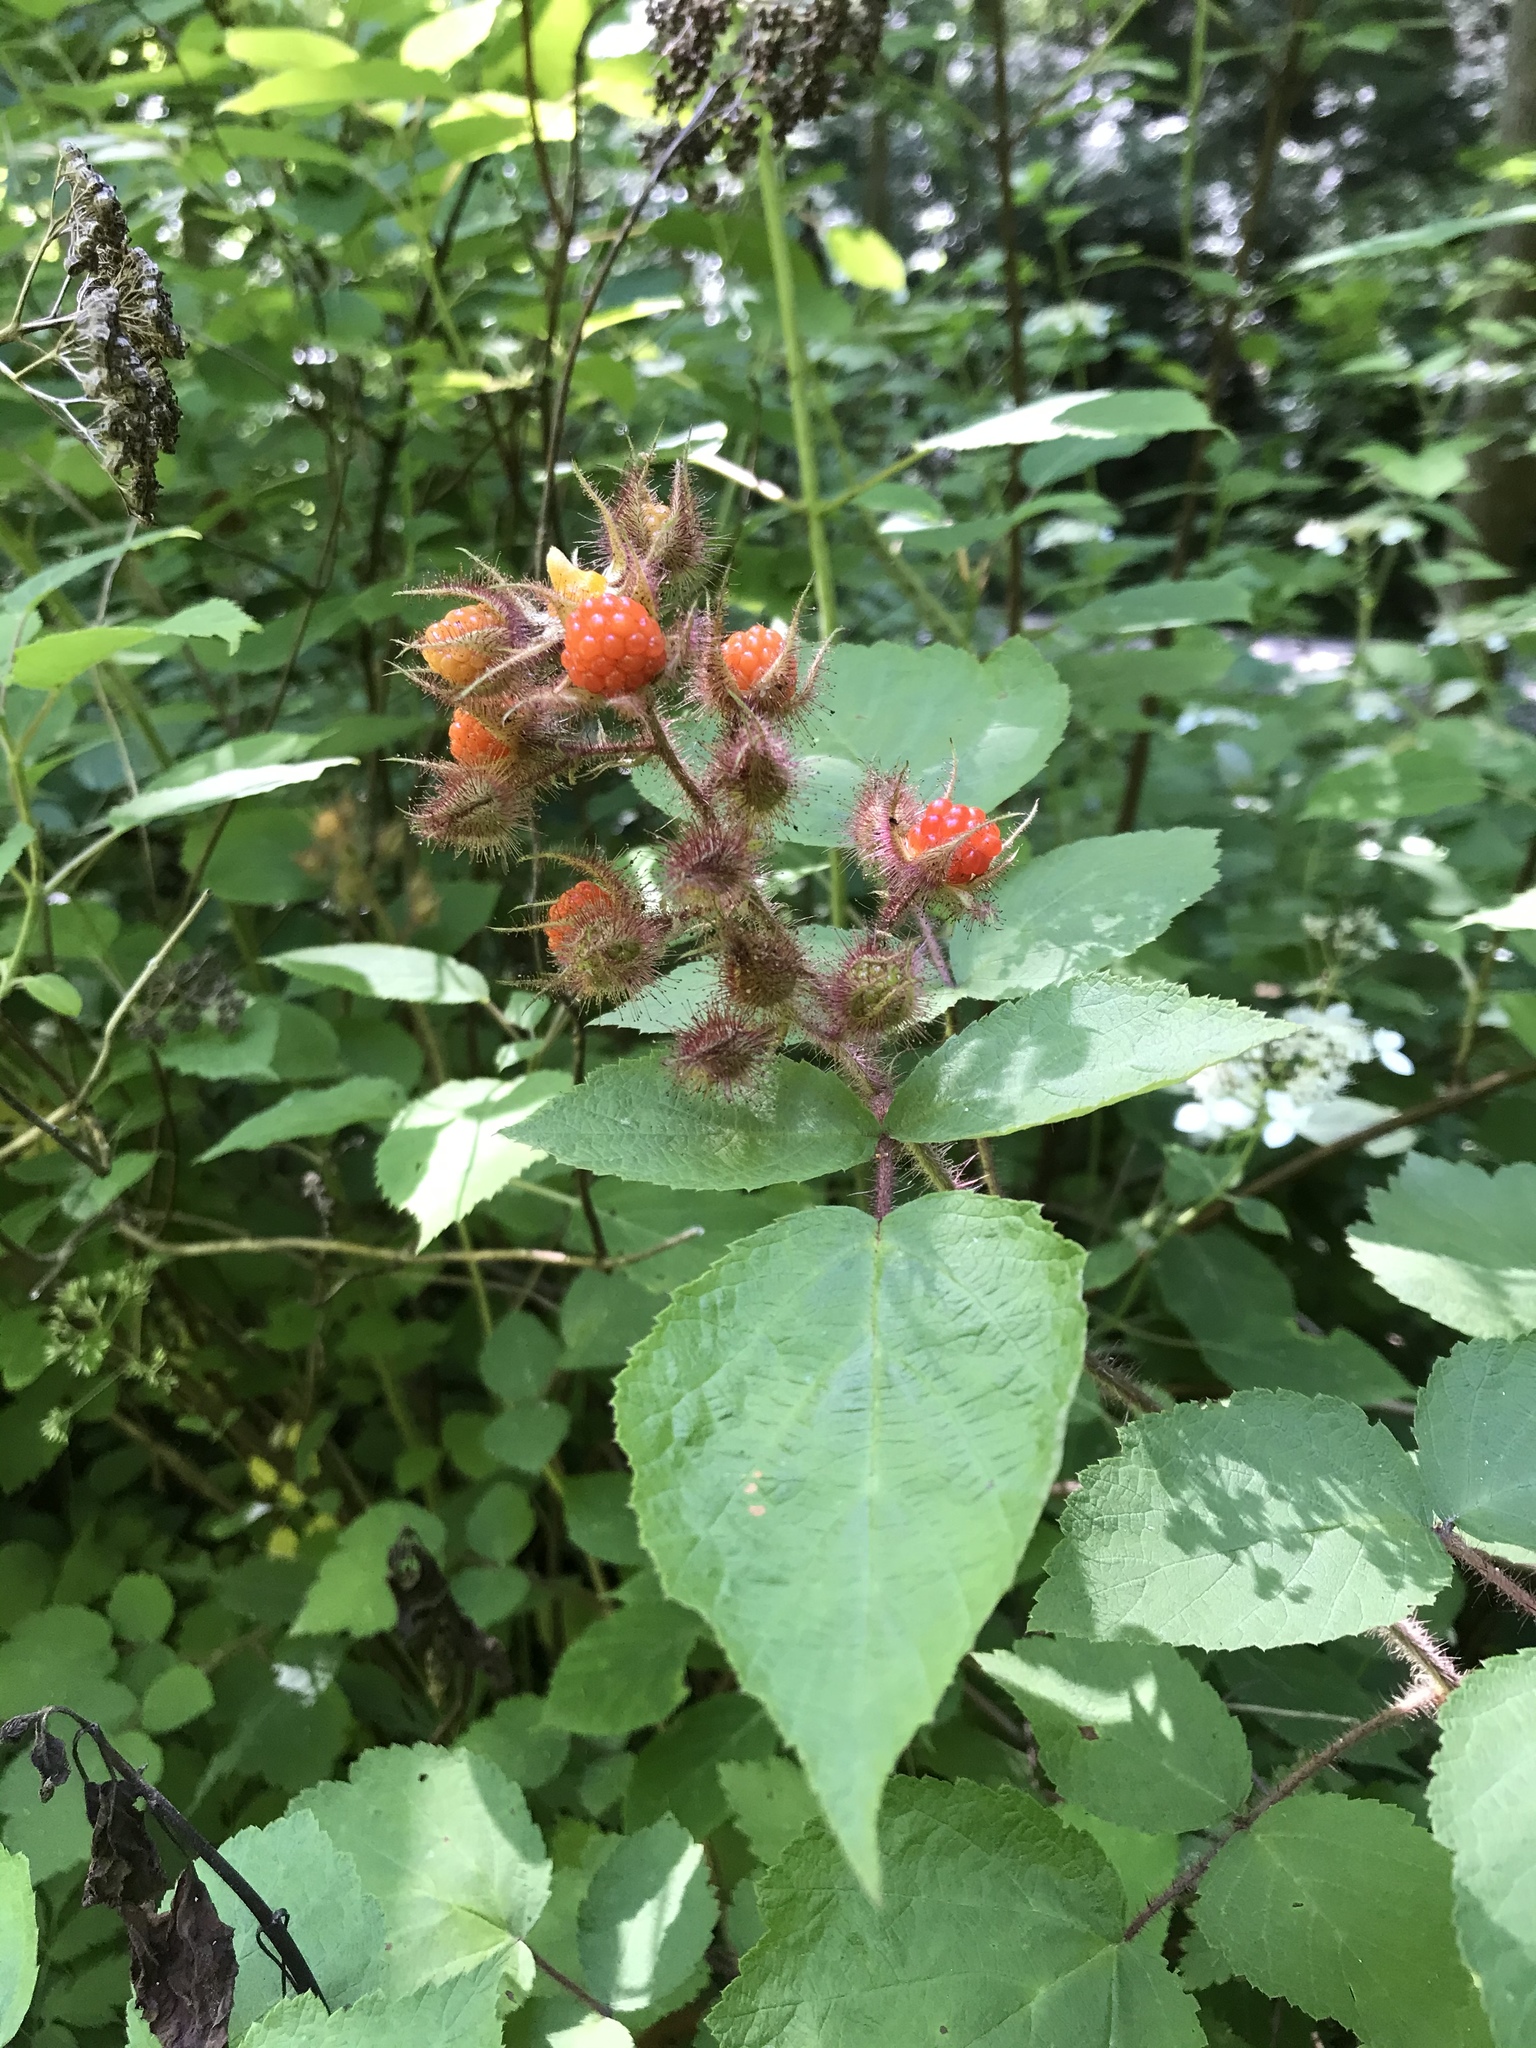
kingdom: Plantae
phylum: Tracheophyta
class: Magnoliopsida
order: Rosales
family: Rosaceae
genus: Rubus
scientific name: Rubus phoenicolasius
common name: Japanese wineberry
